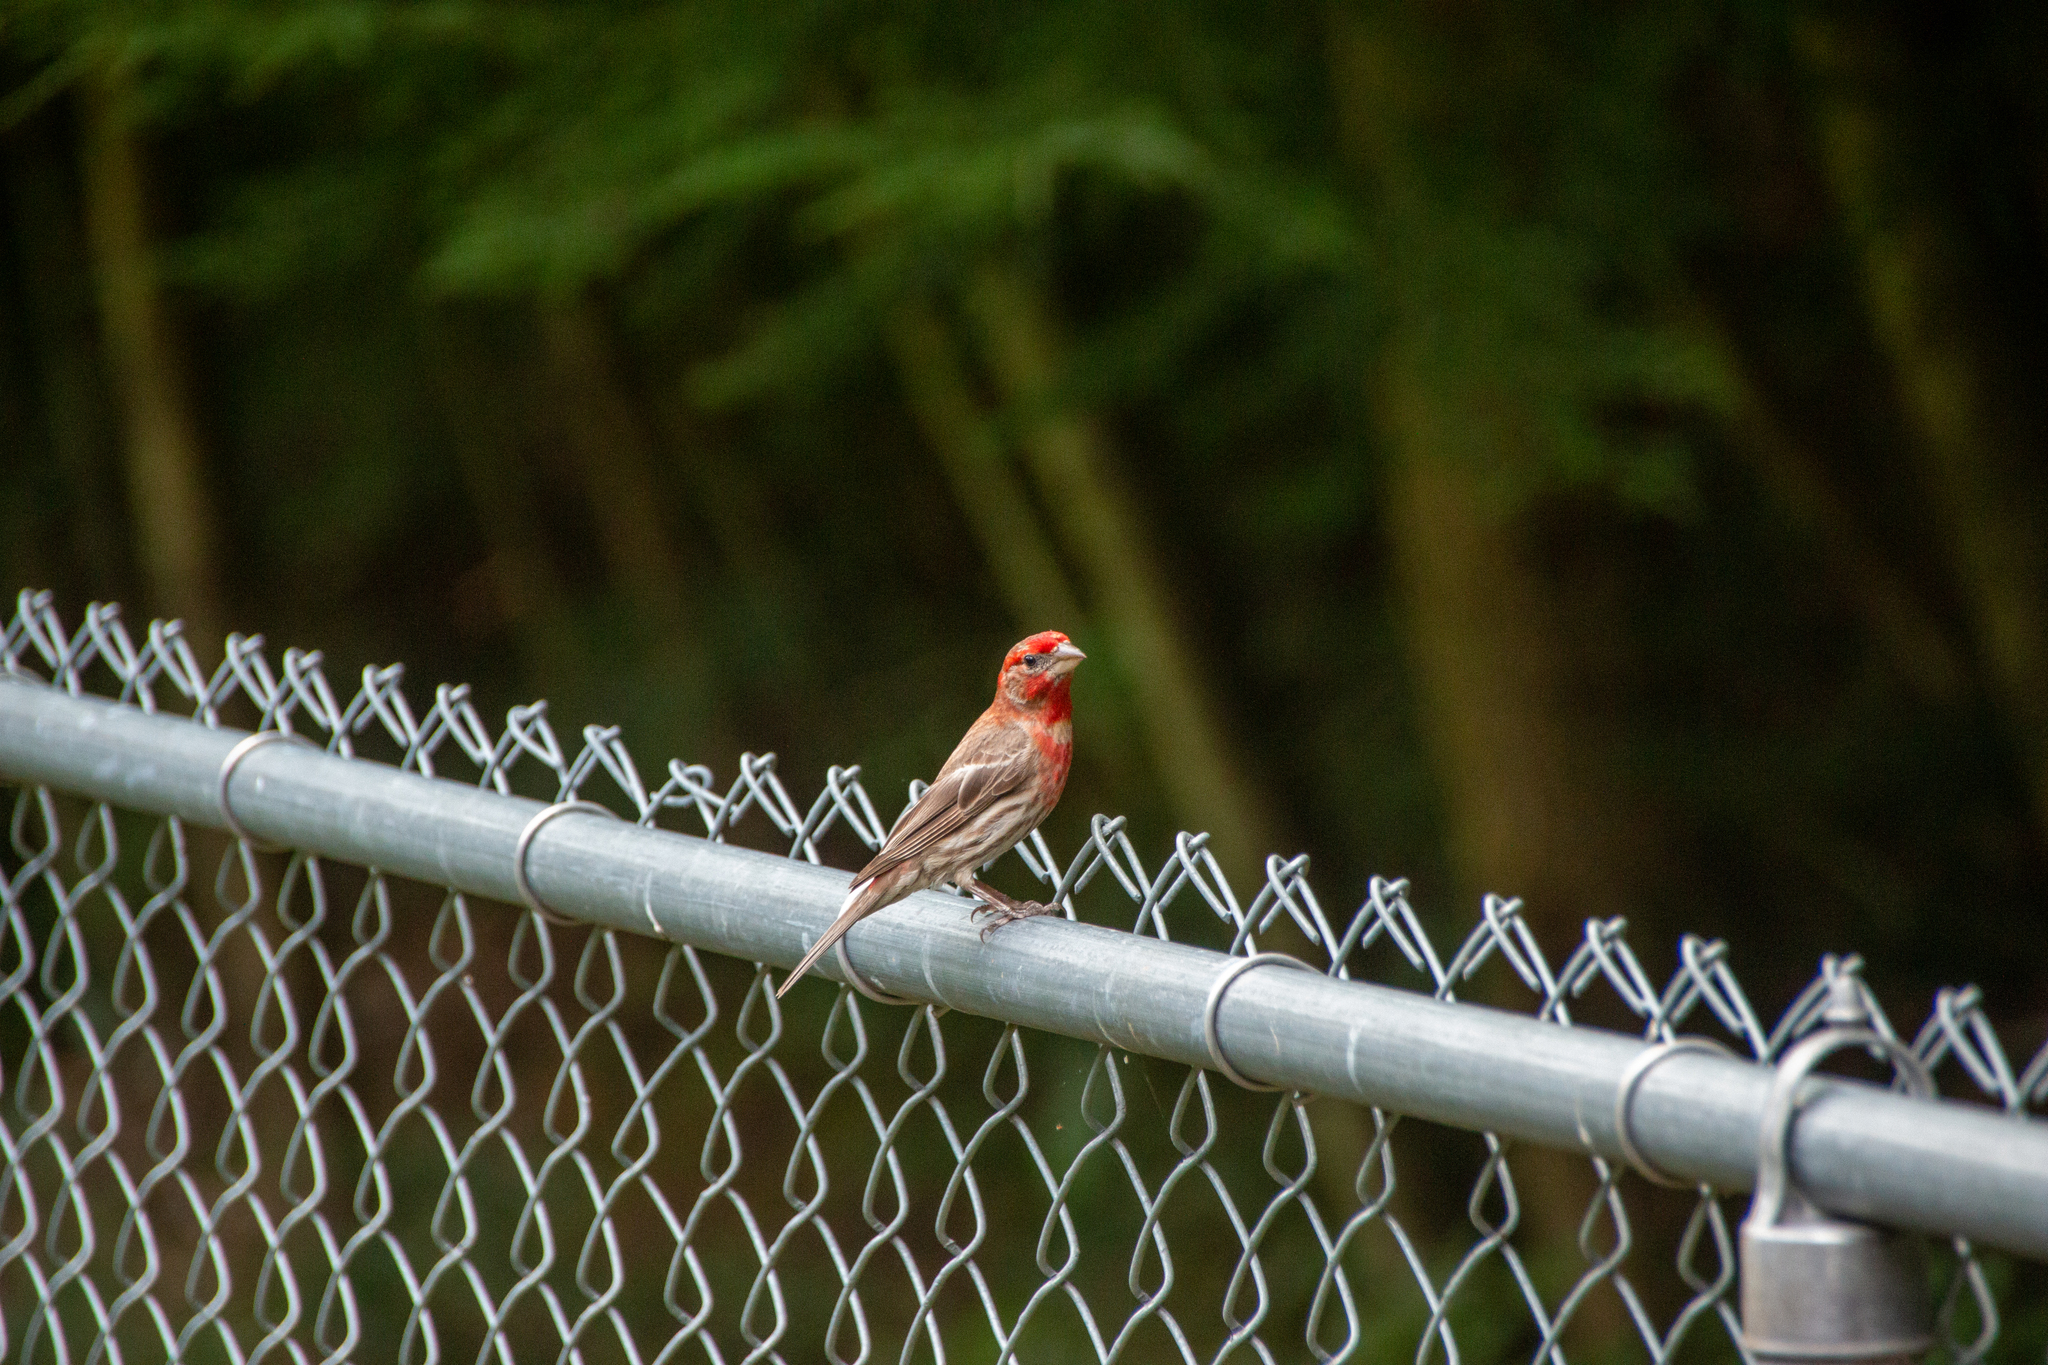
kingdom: Animalia
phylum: Chordata
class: Aves
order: Passeriformes
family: Fringillidae
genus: Haemorhous
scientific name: Haemorhous mexicanus
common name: House finch
